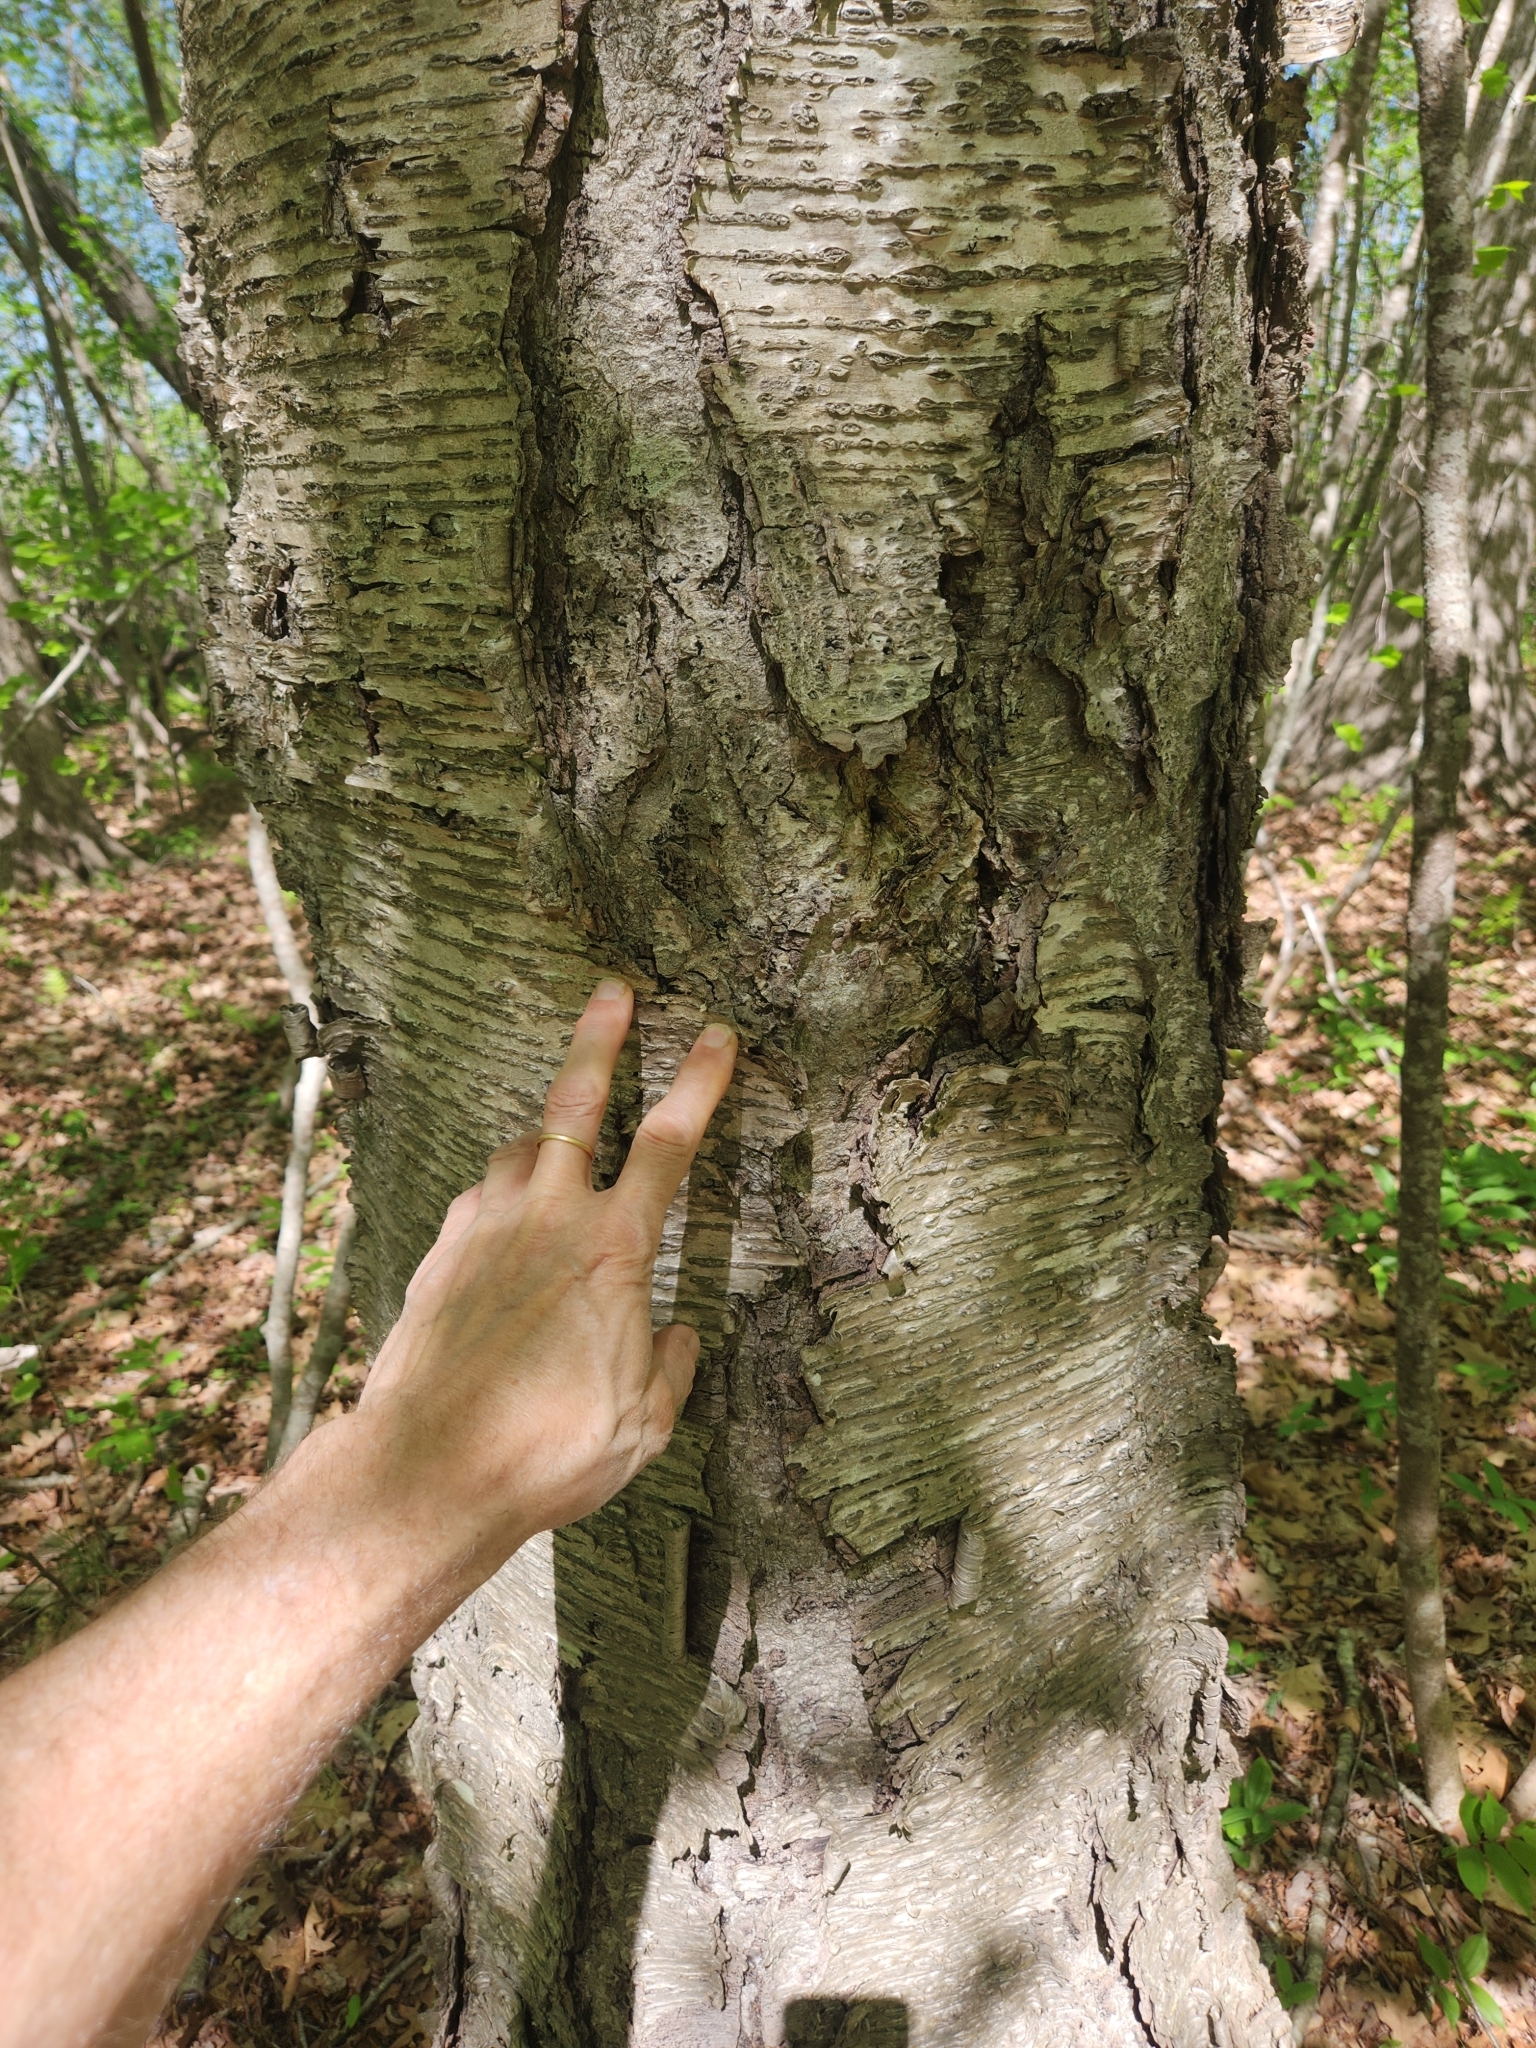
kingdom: Plantae
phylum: Tracheophyta
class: Magnoliopsida
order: Fagales
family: Betulaceae
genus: Betula
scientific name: Betula alleghaniensis
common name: Yellow birch
